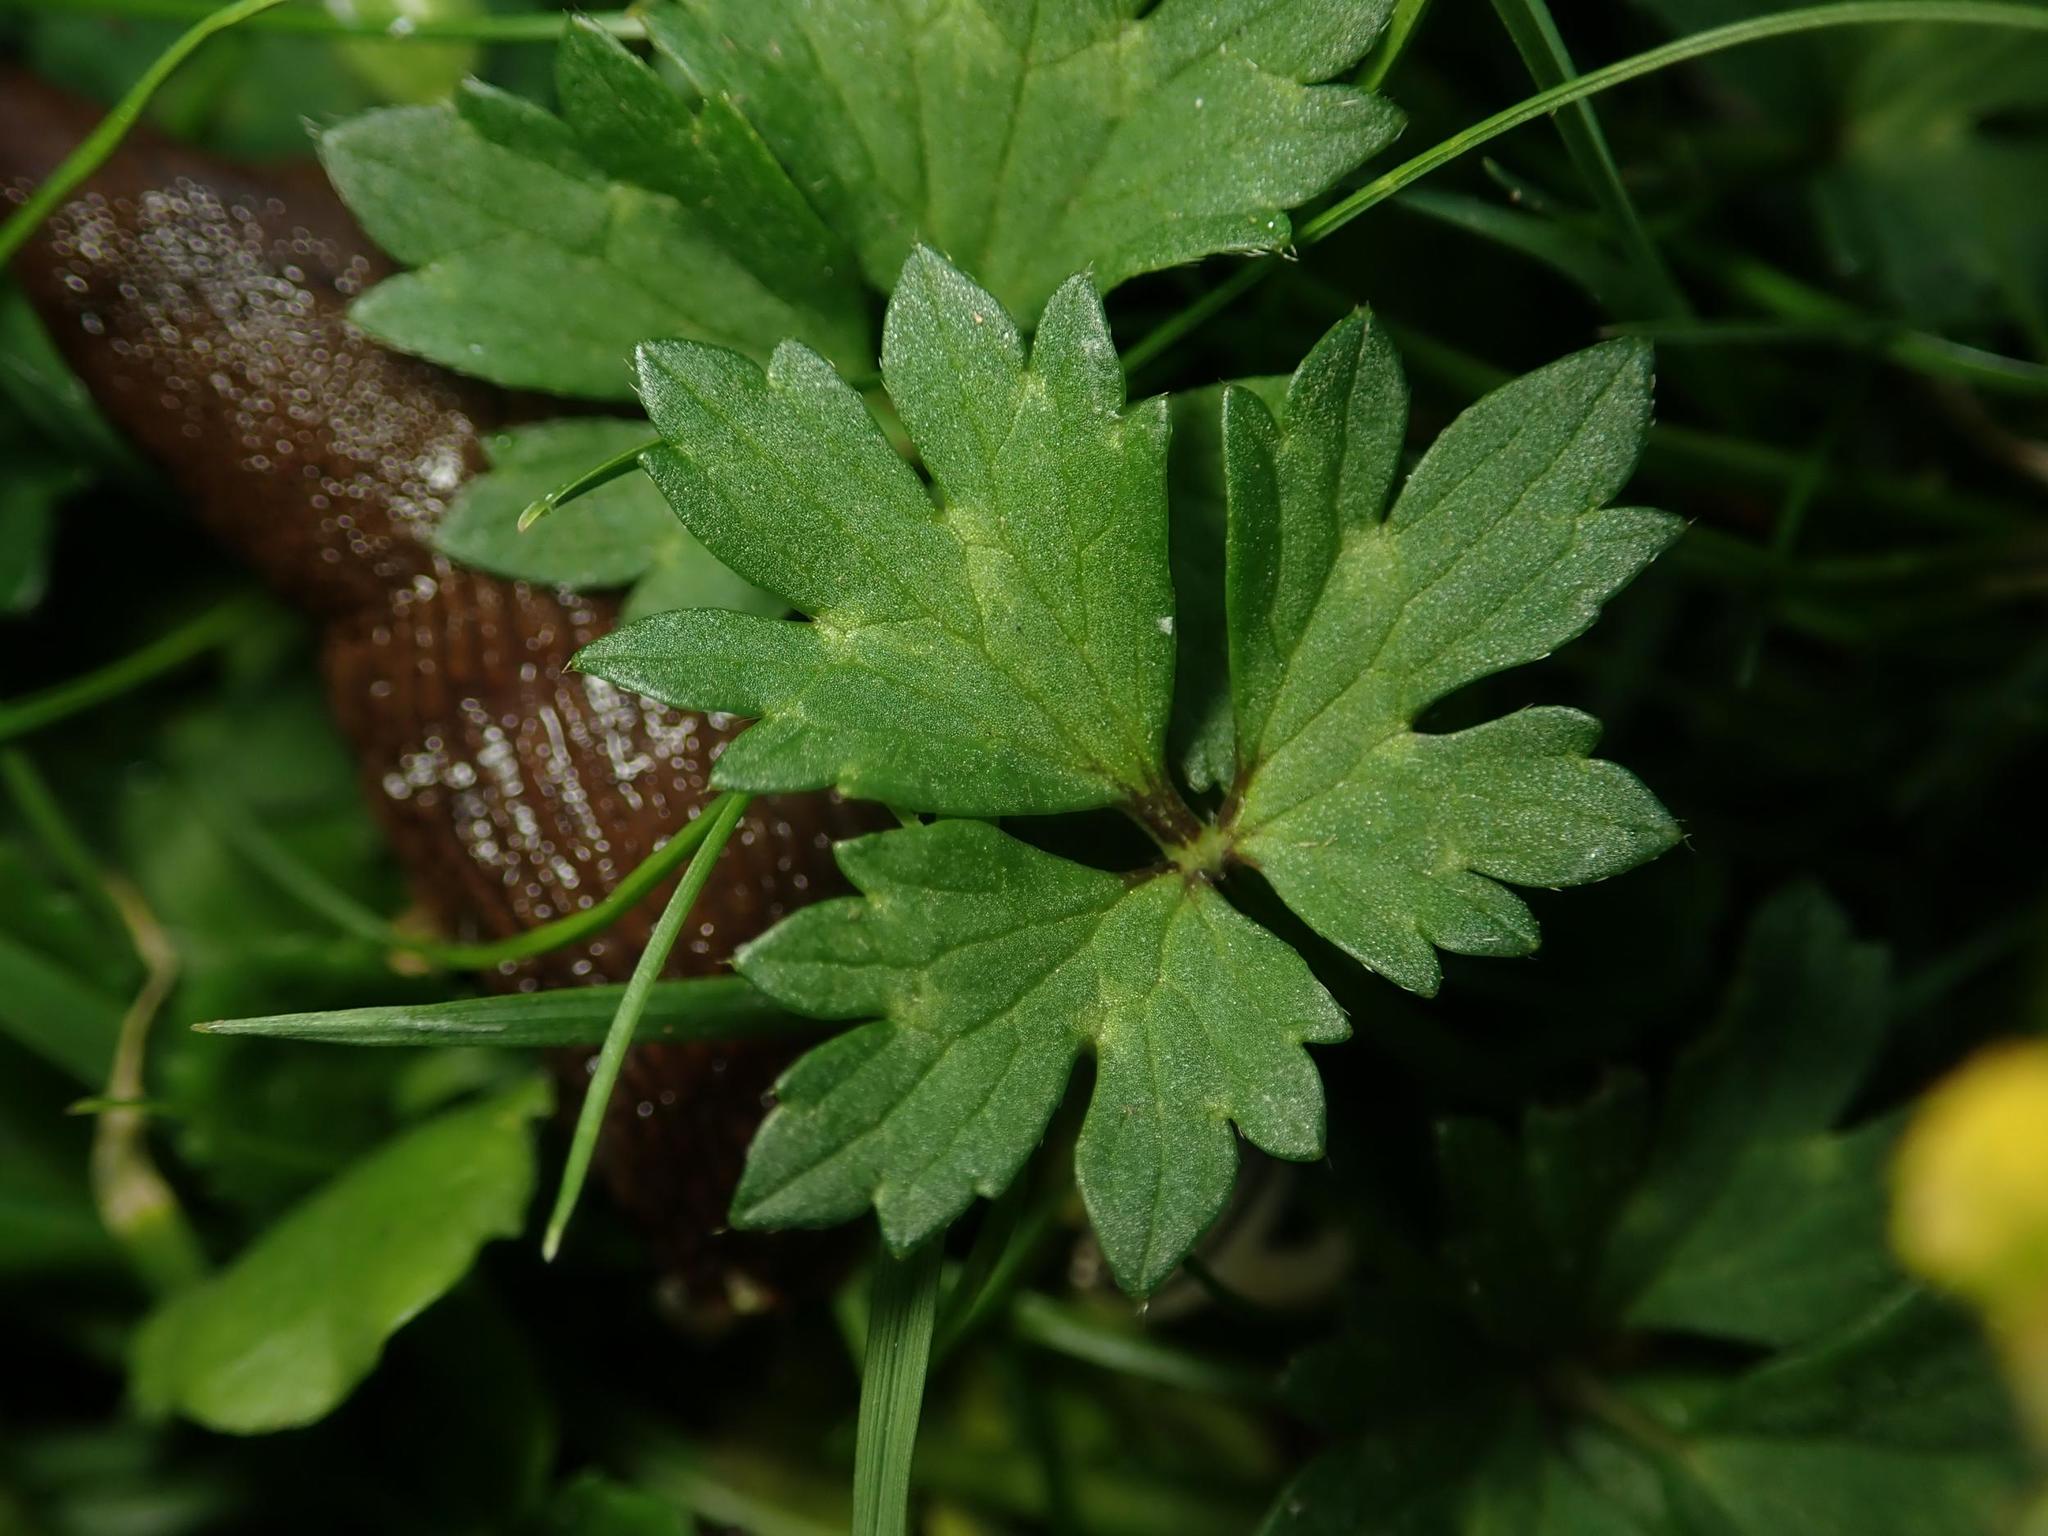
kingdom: Plantae
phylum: Tracheophyta
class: Magnoliopsida
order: Ranunculales
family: Ranunculaceae
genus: Ranunculus
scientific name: Ranunculus repens
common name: Creeping buttercup
